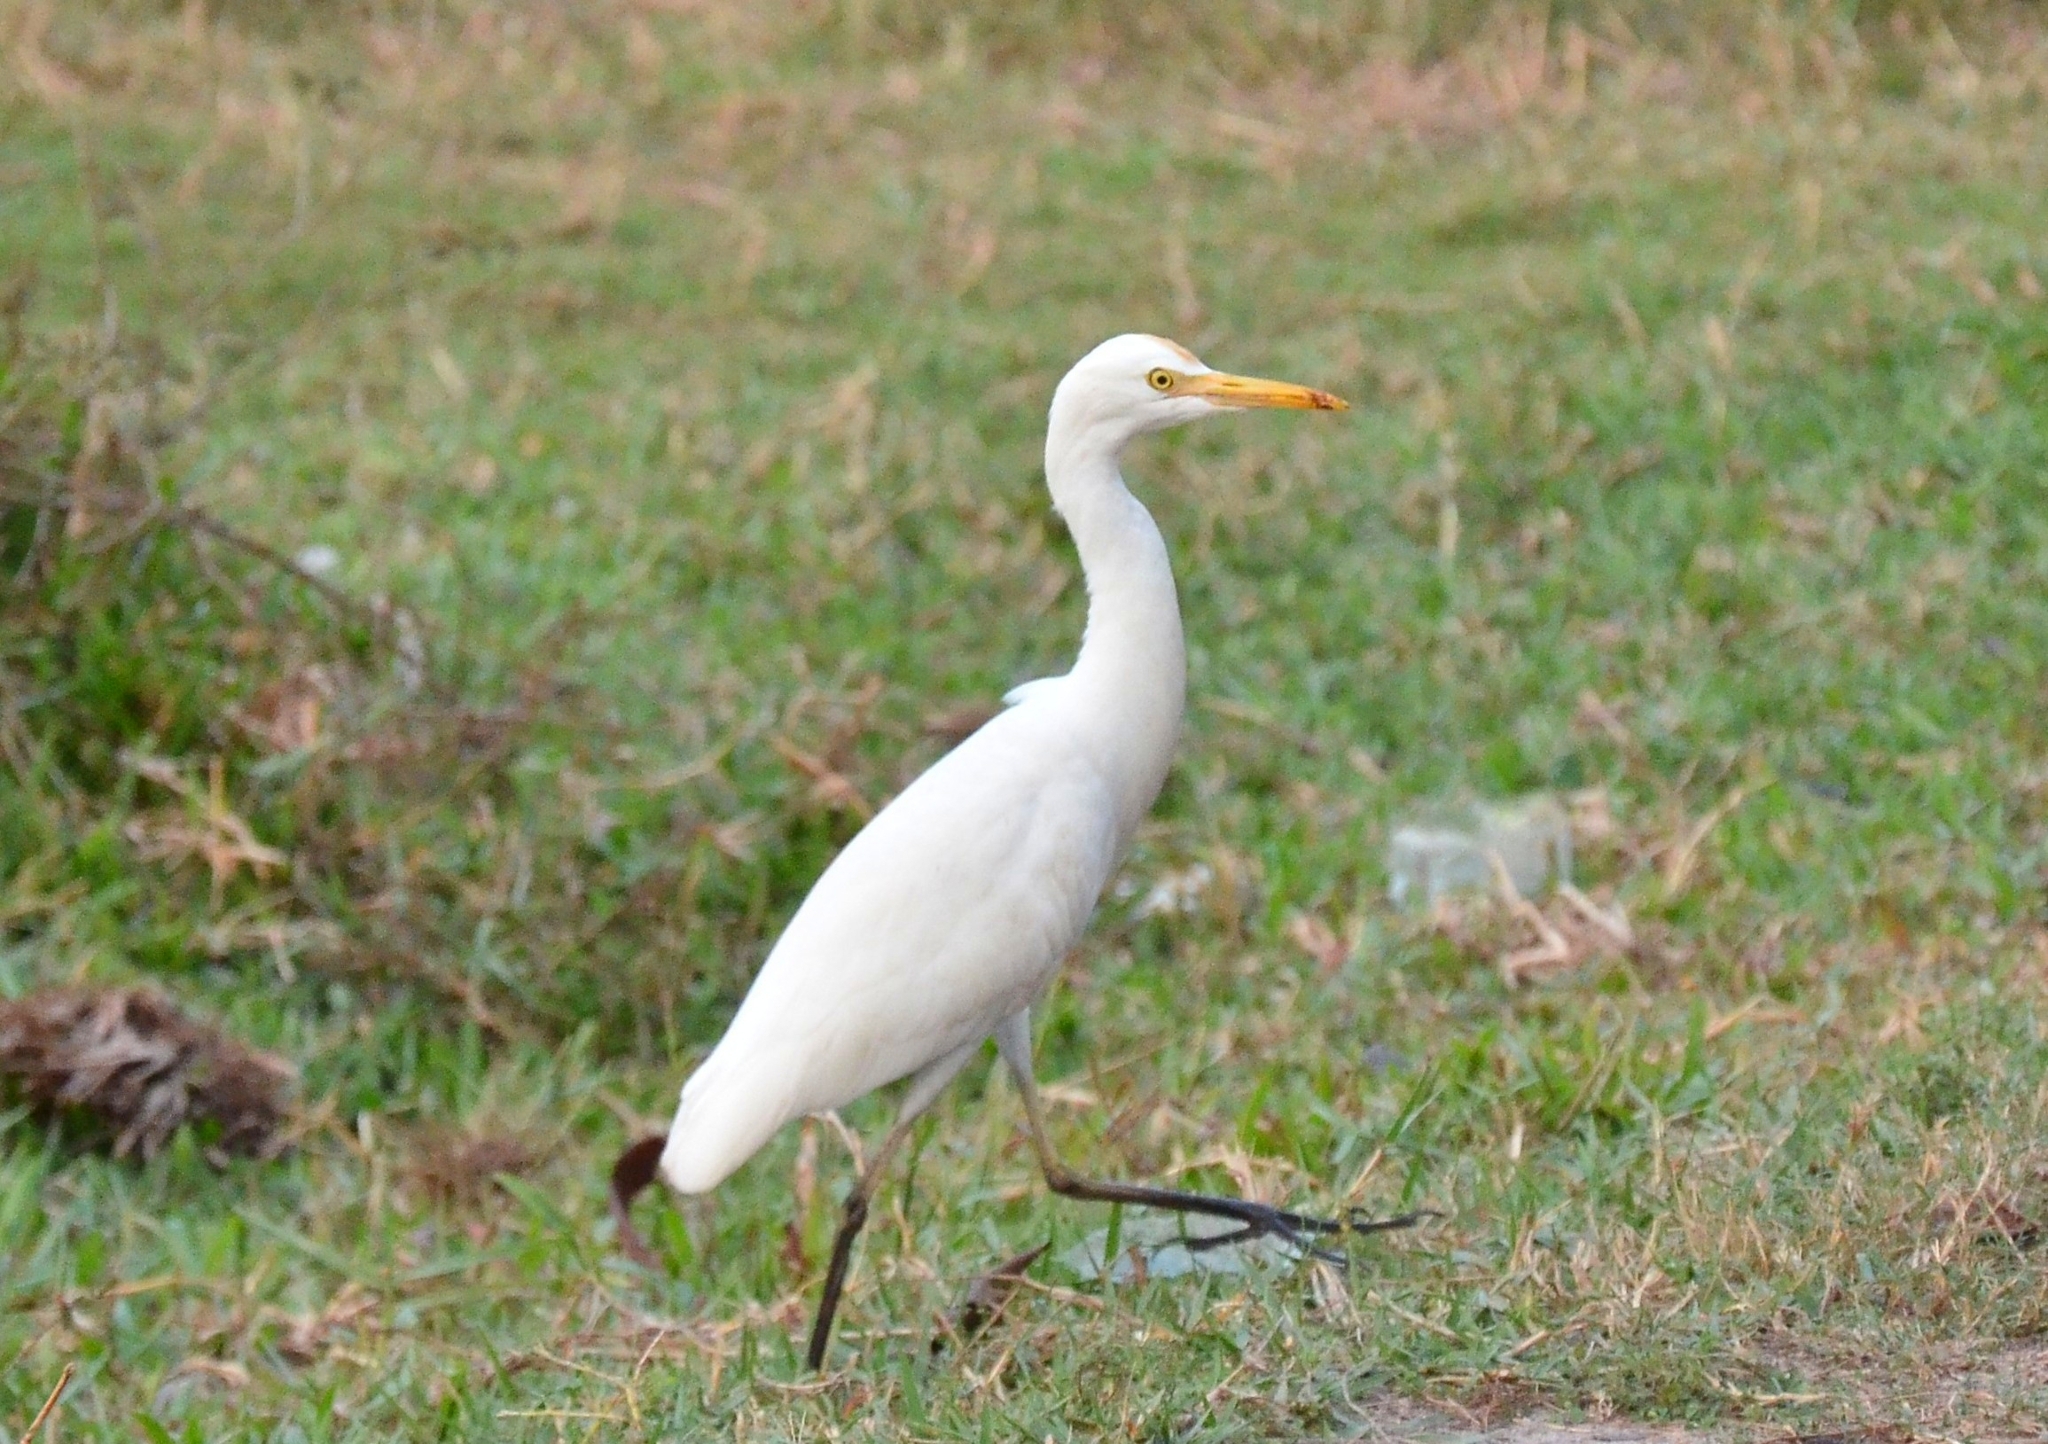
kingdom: Animalia
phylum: Chordata
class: Aves
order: Pelecaniformes
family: Ardeidae
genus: Bubulcus
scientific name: Bubulcus coromandus
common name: Eastern cattle egret
